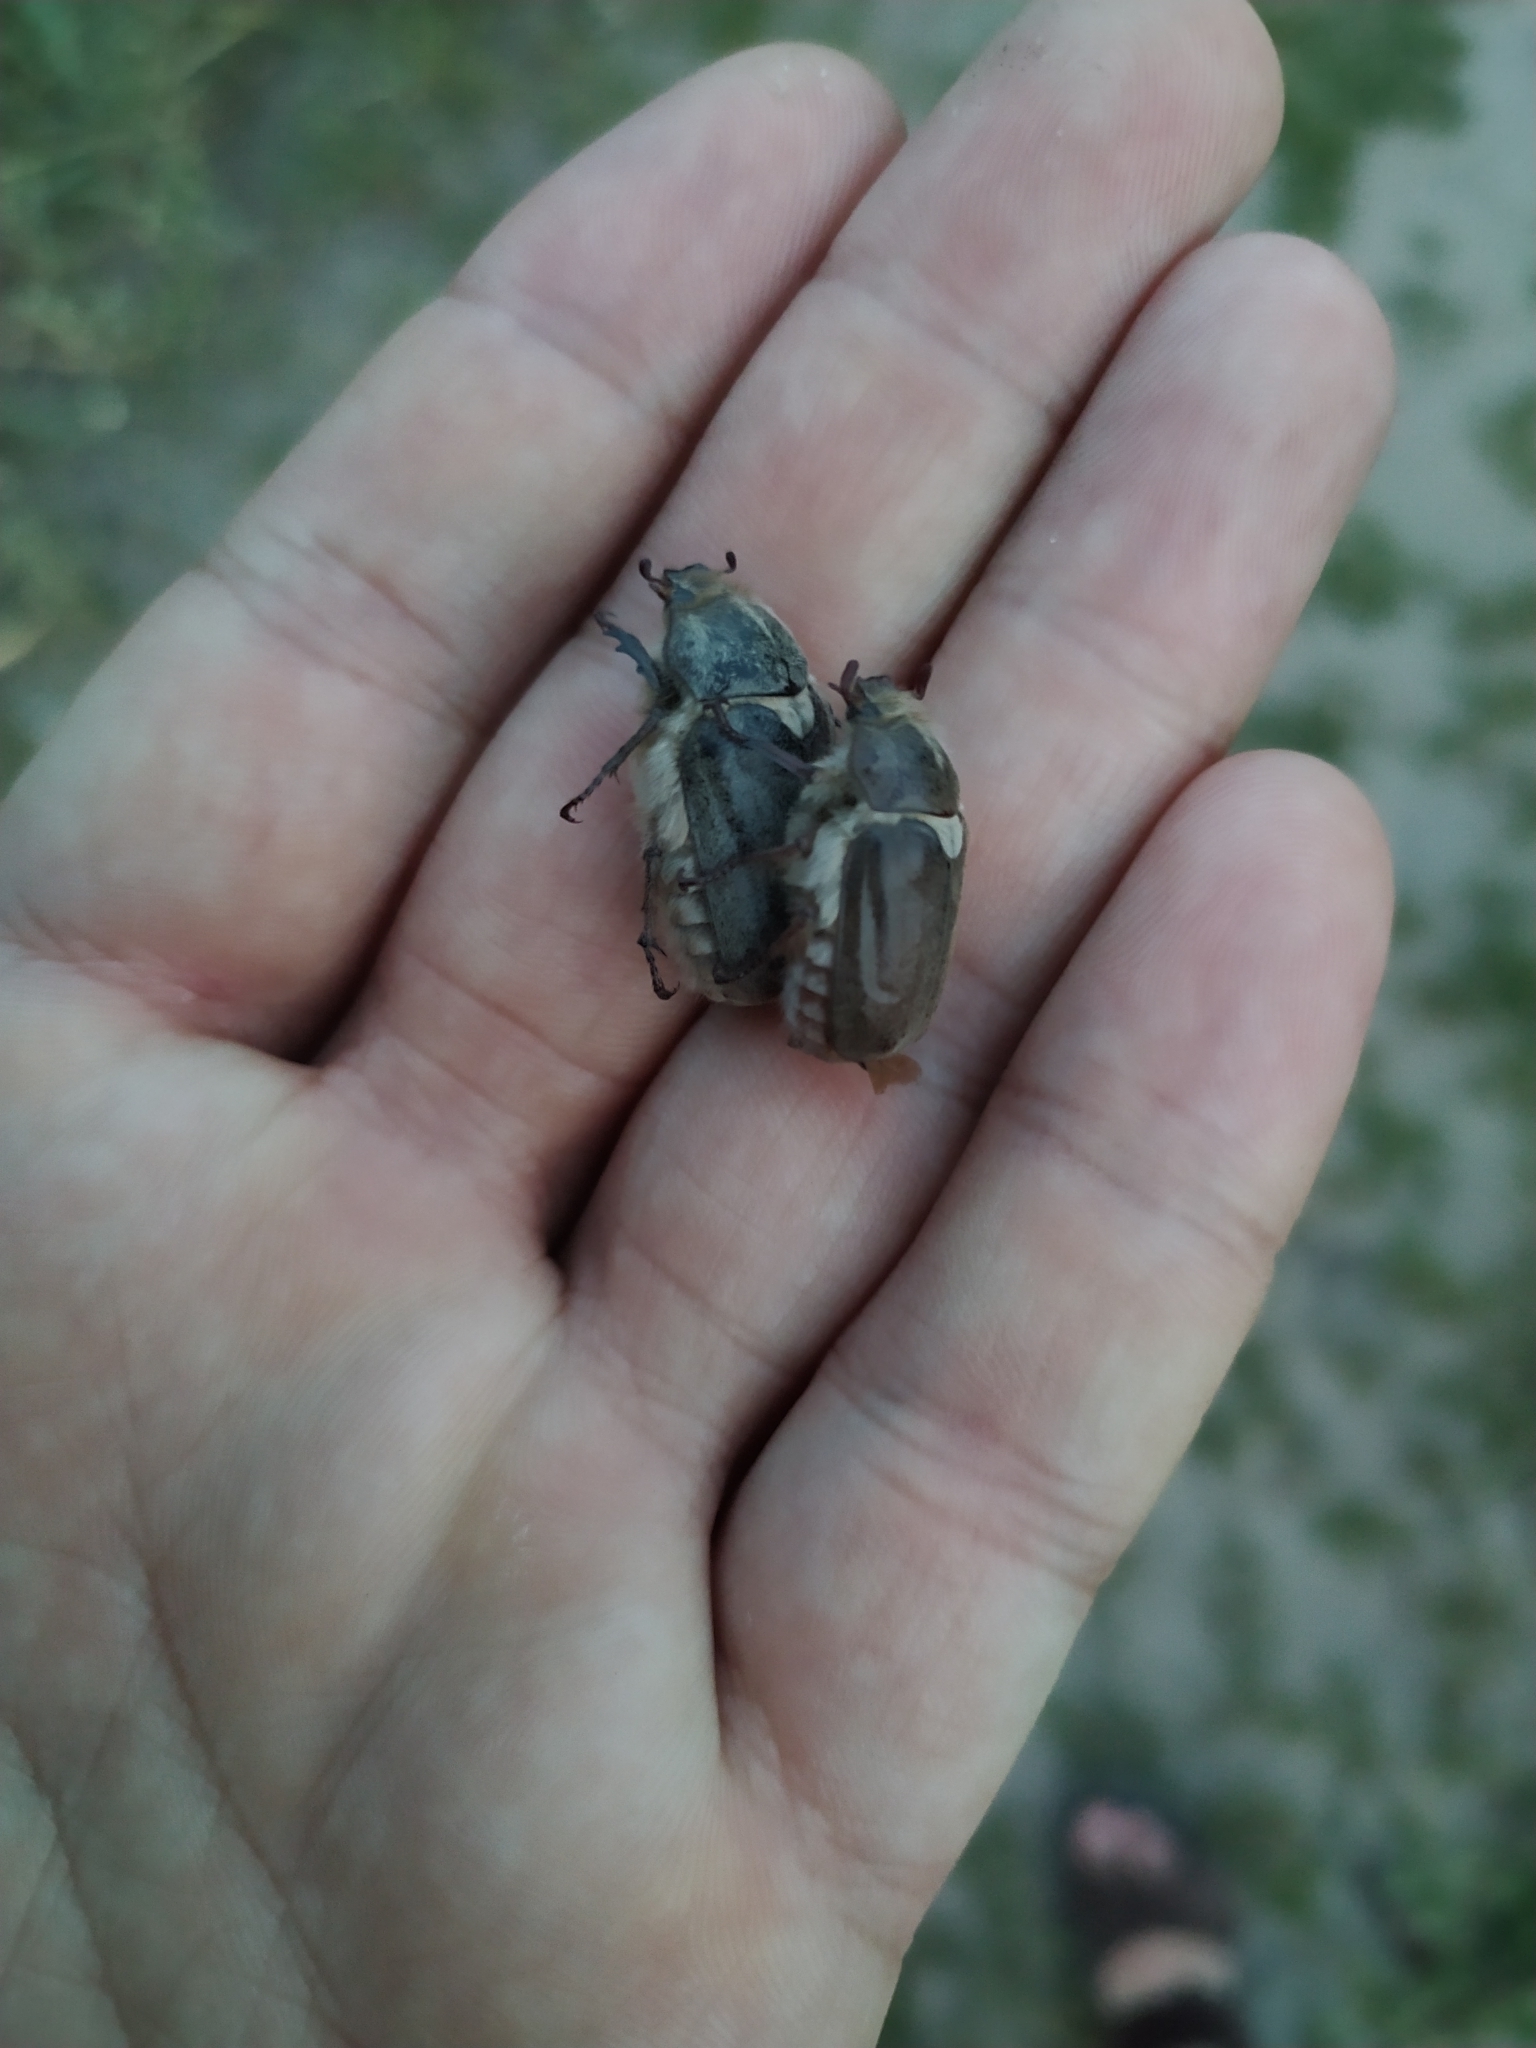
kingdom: Animalia
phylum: Arthropoda
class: Insecta
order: Coleoptera
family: Scarabaeidae
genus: Anoxia
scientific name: Anoxia pilosa
